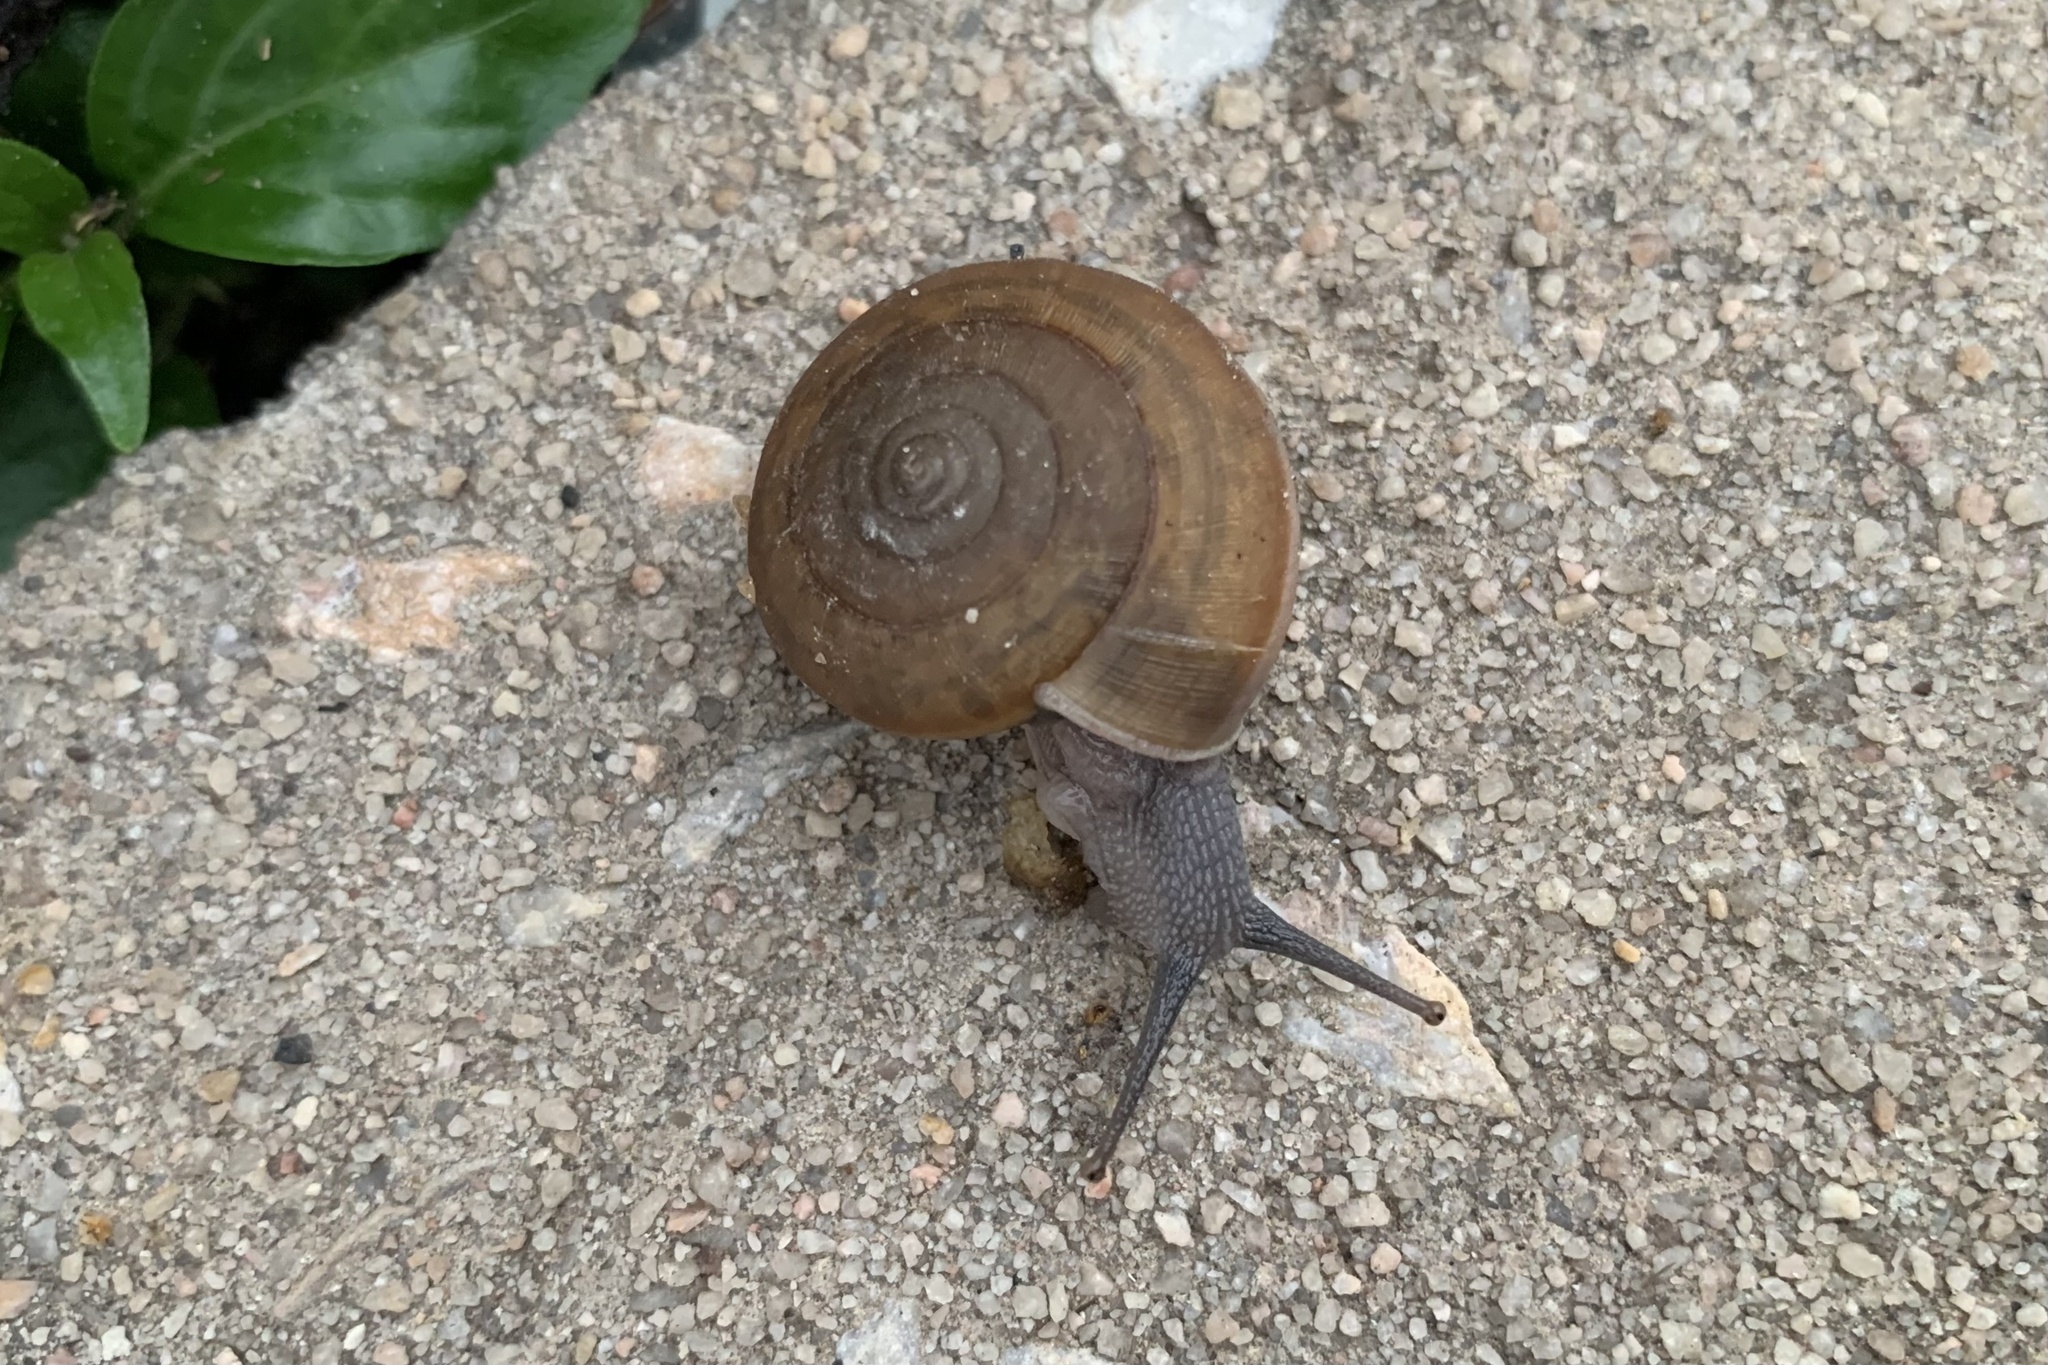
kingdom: Animalia
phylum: Mollusca
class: Gastropoda
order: Stylommatophora
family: Ariophantidae
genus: Sarika
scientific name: Sarika siamensis
